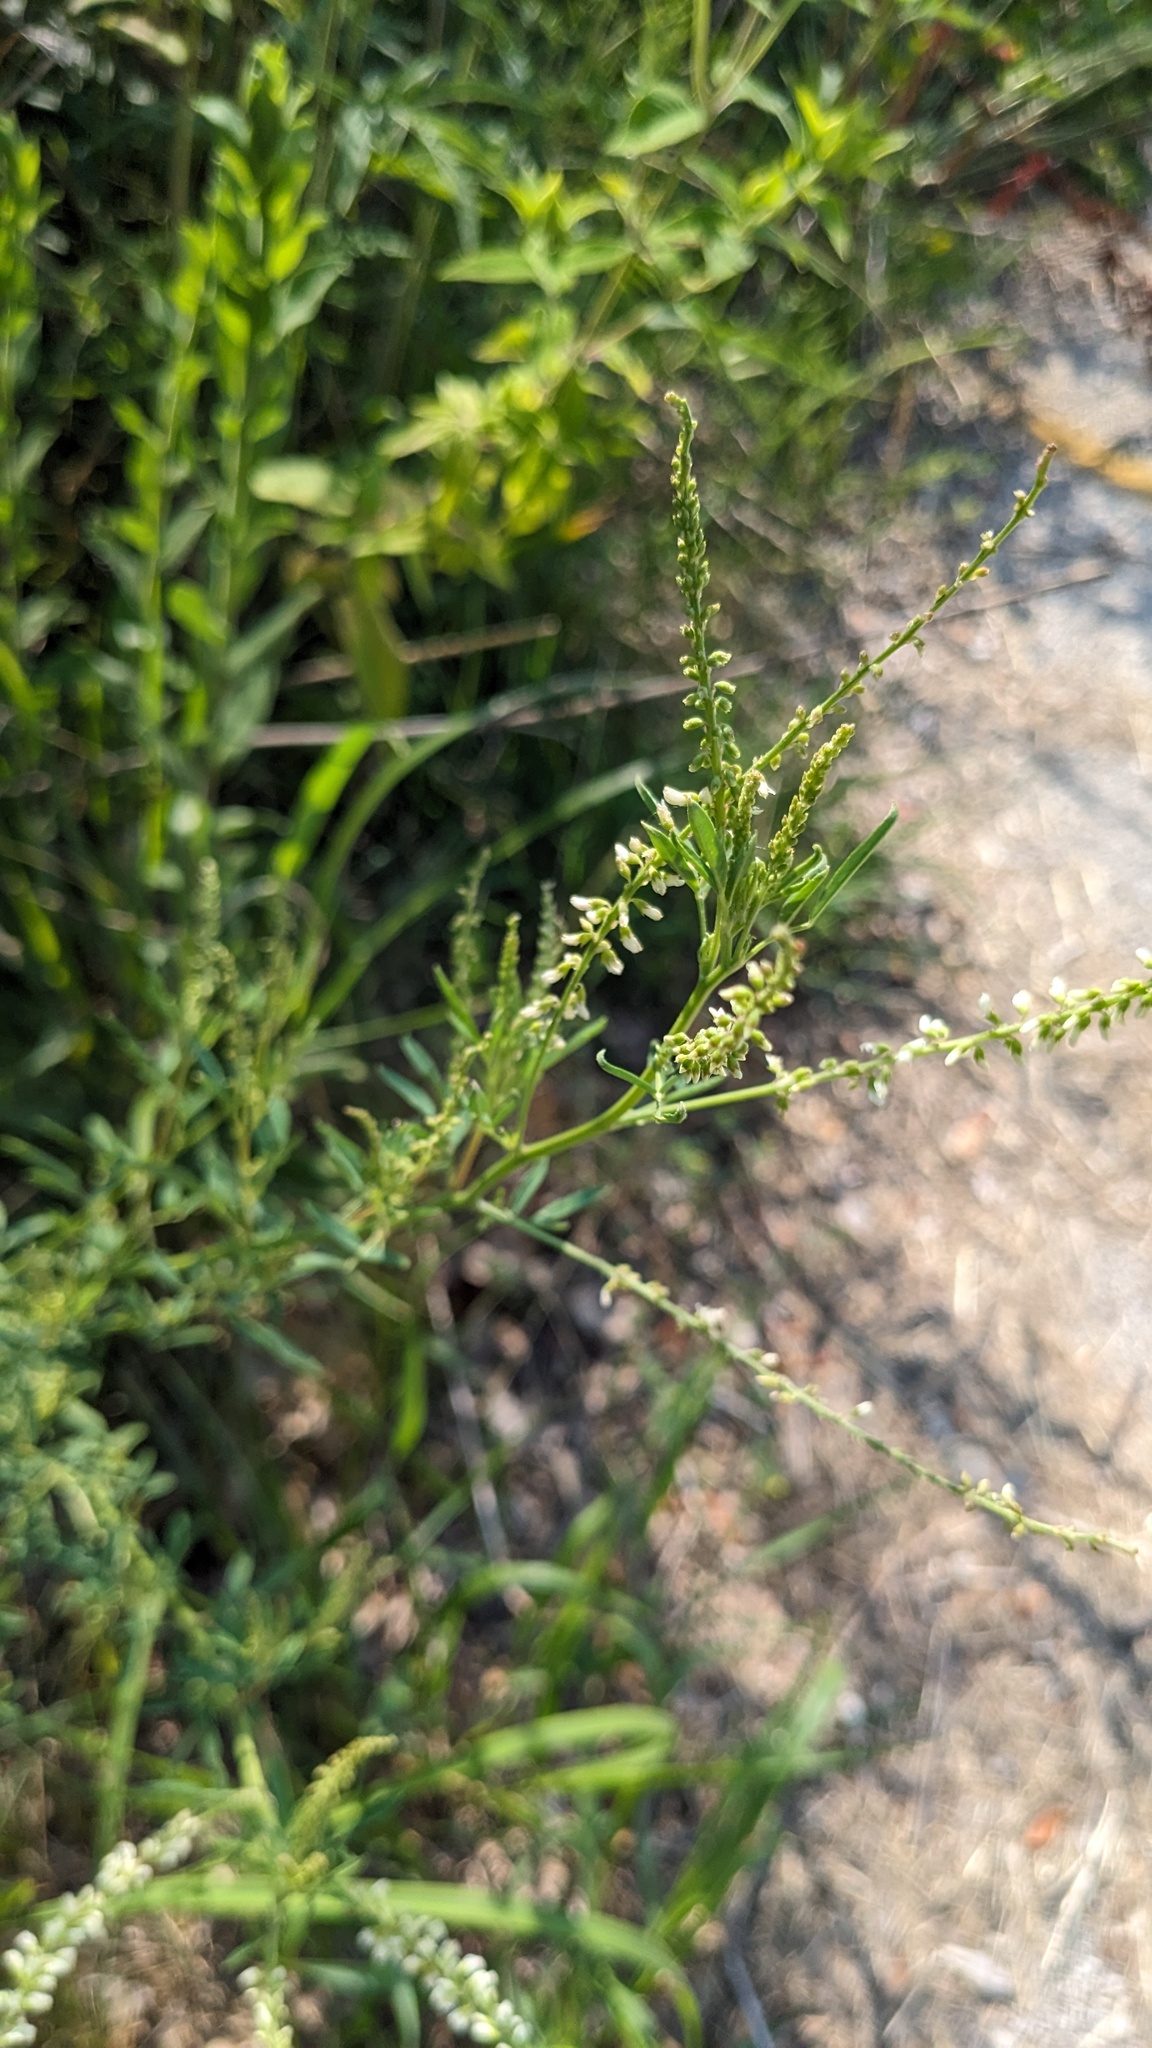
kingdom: Plantae
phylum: Tracheophyta
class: Magnoliopsida
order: Fabales
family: Fabaceae
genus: Melilotus
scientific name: Melilotus albus
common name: White melilot
